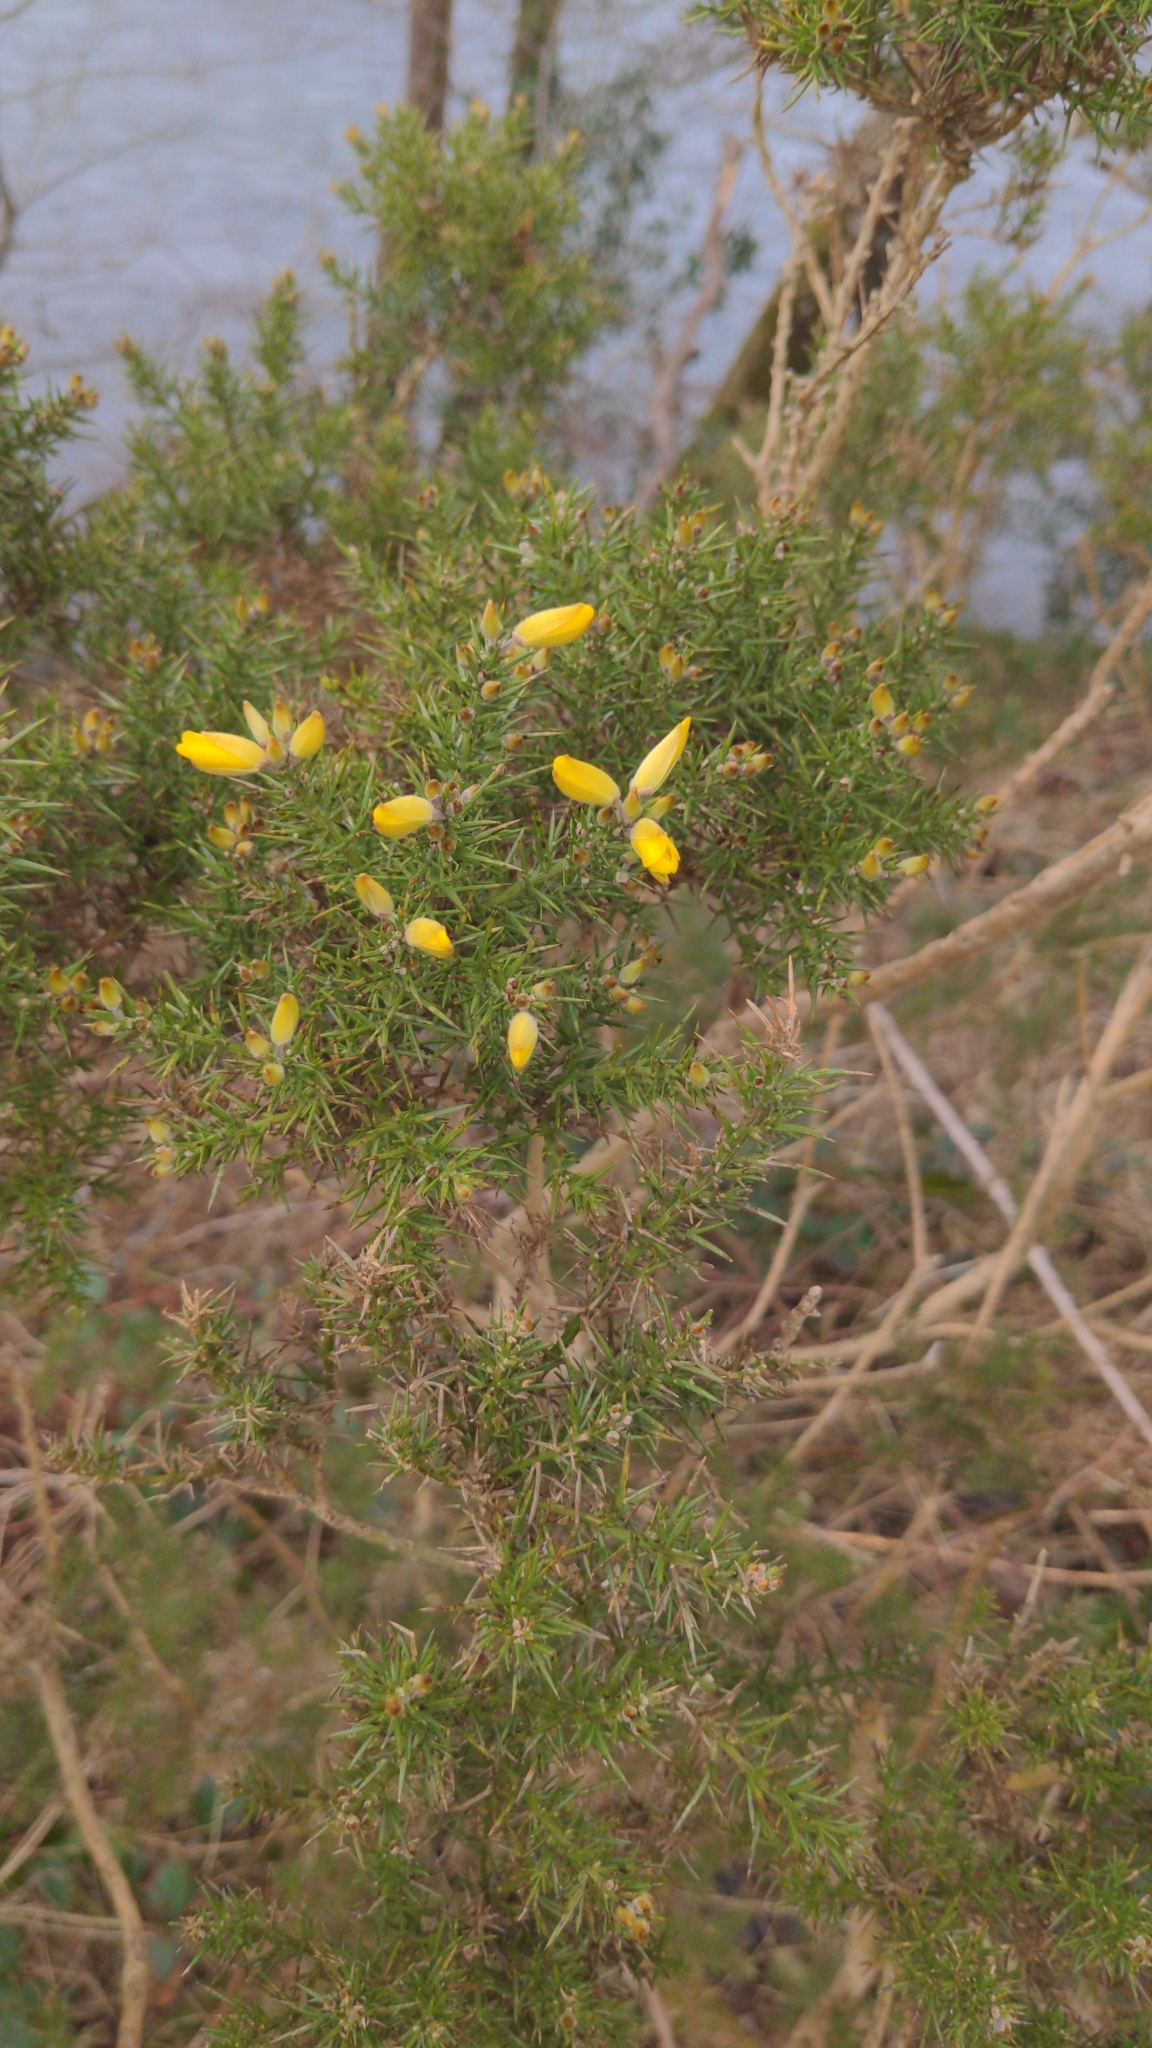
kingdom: Plantae
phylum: Tracheophyta
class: Magnoliopsida
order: Fabales
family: Fabaceae
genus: Ulex
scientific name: Ulex europaeus
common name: Common gorse
